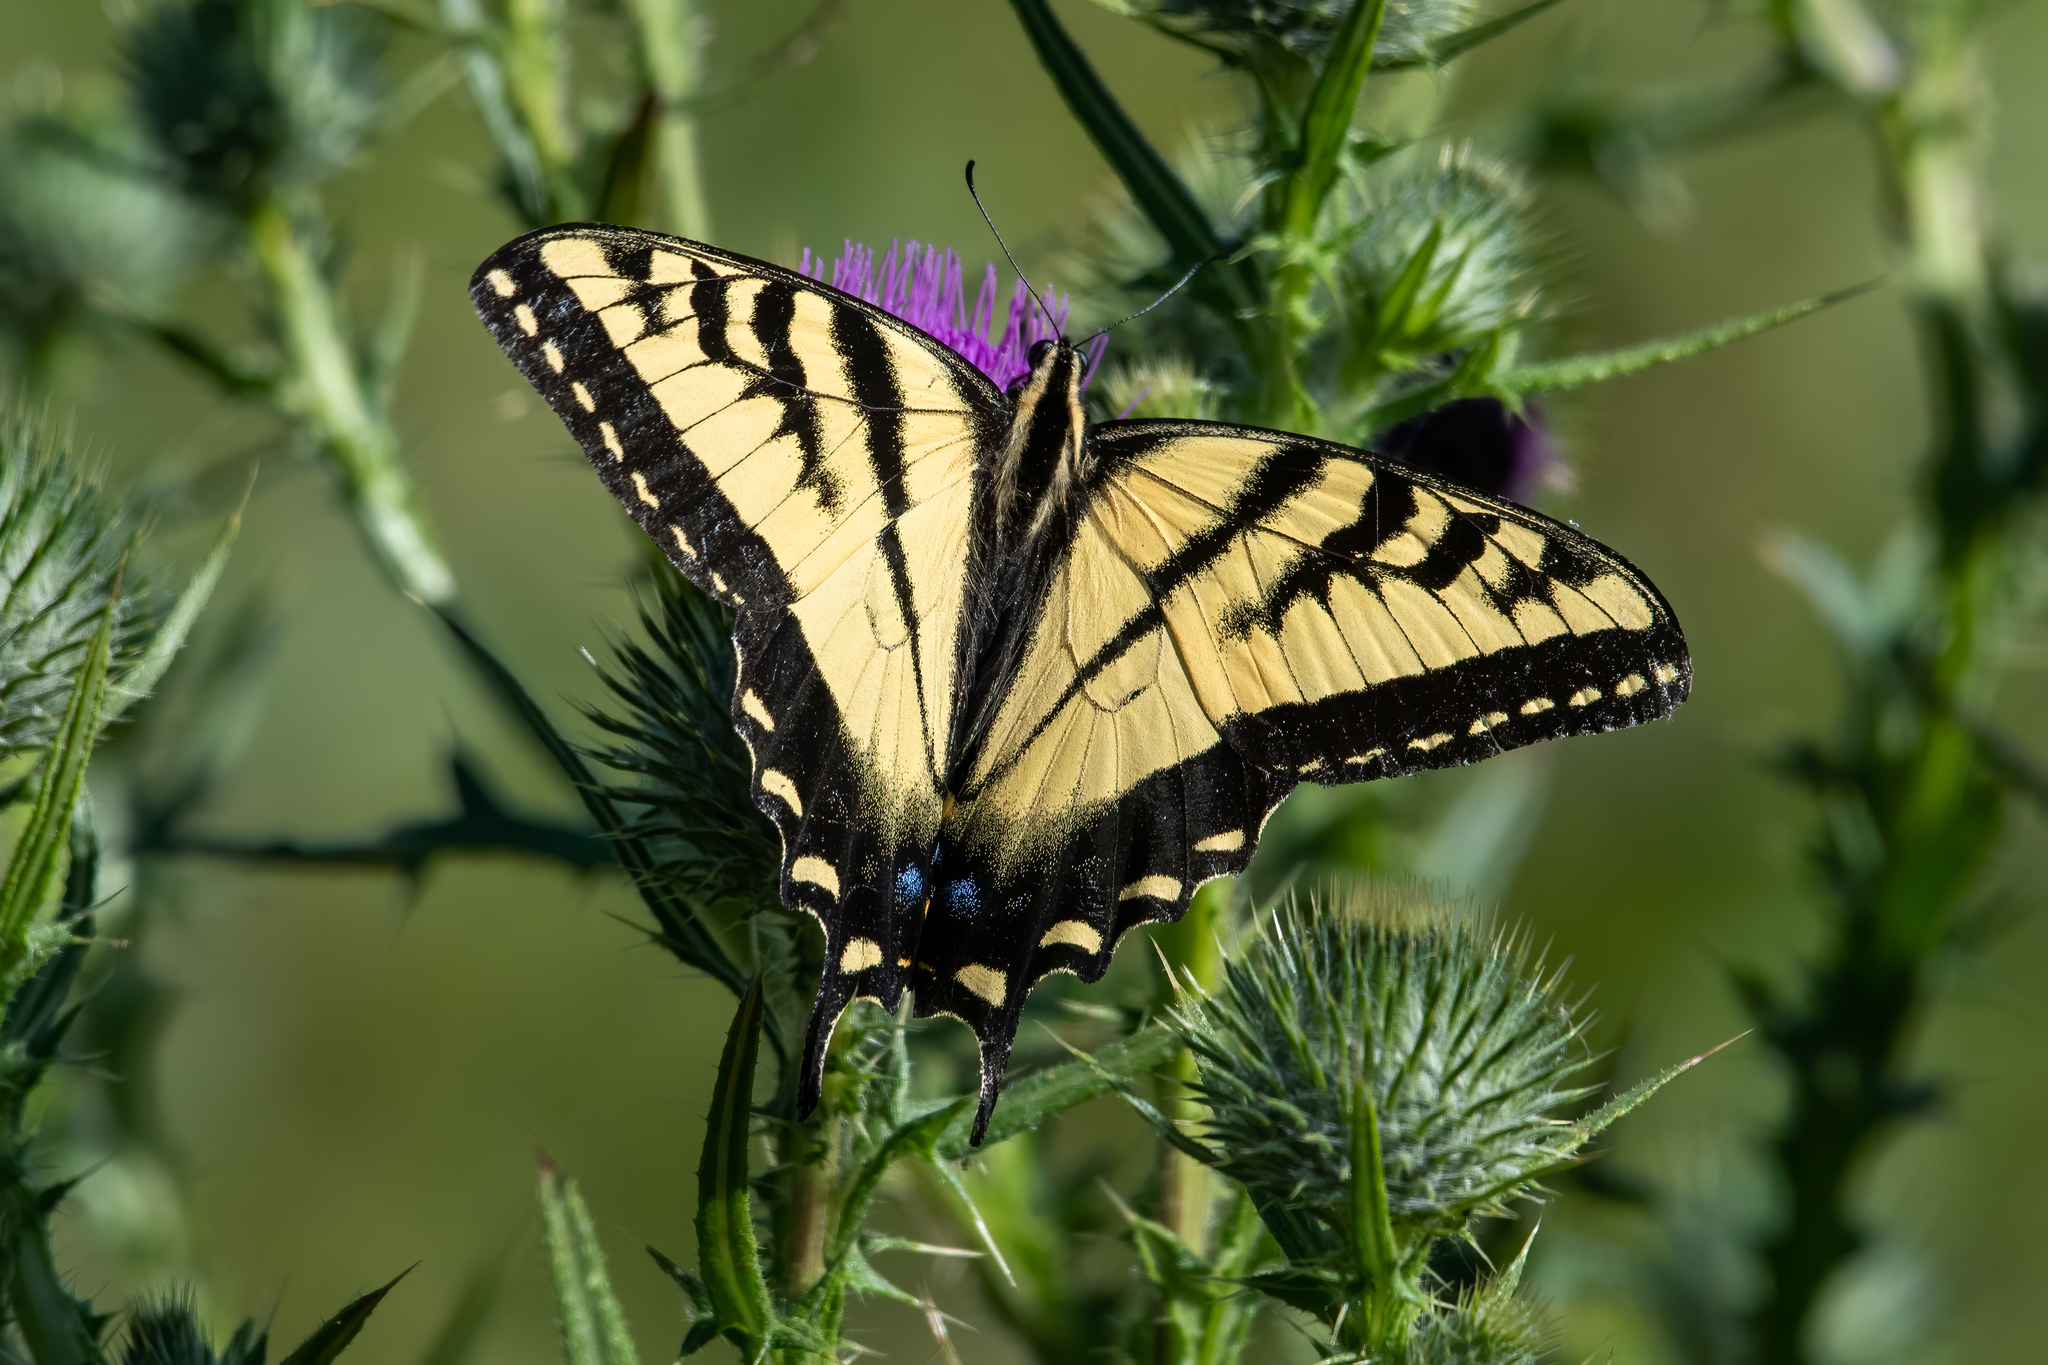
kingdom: Animalia
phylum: Arthropoda
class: Insecta
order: Lepidoptera
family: Papilionidae
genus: Papilio
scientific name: Papilio rutulus
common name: Western tiger swallowtail
